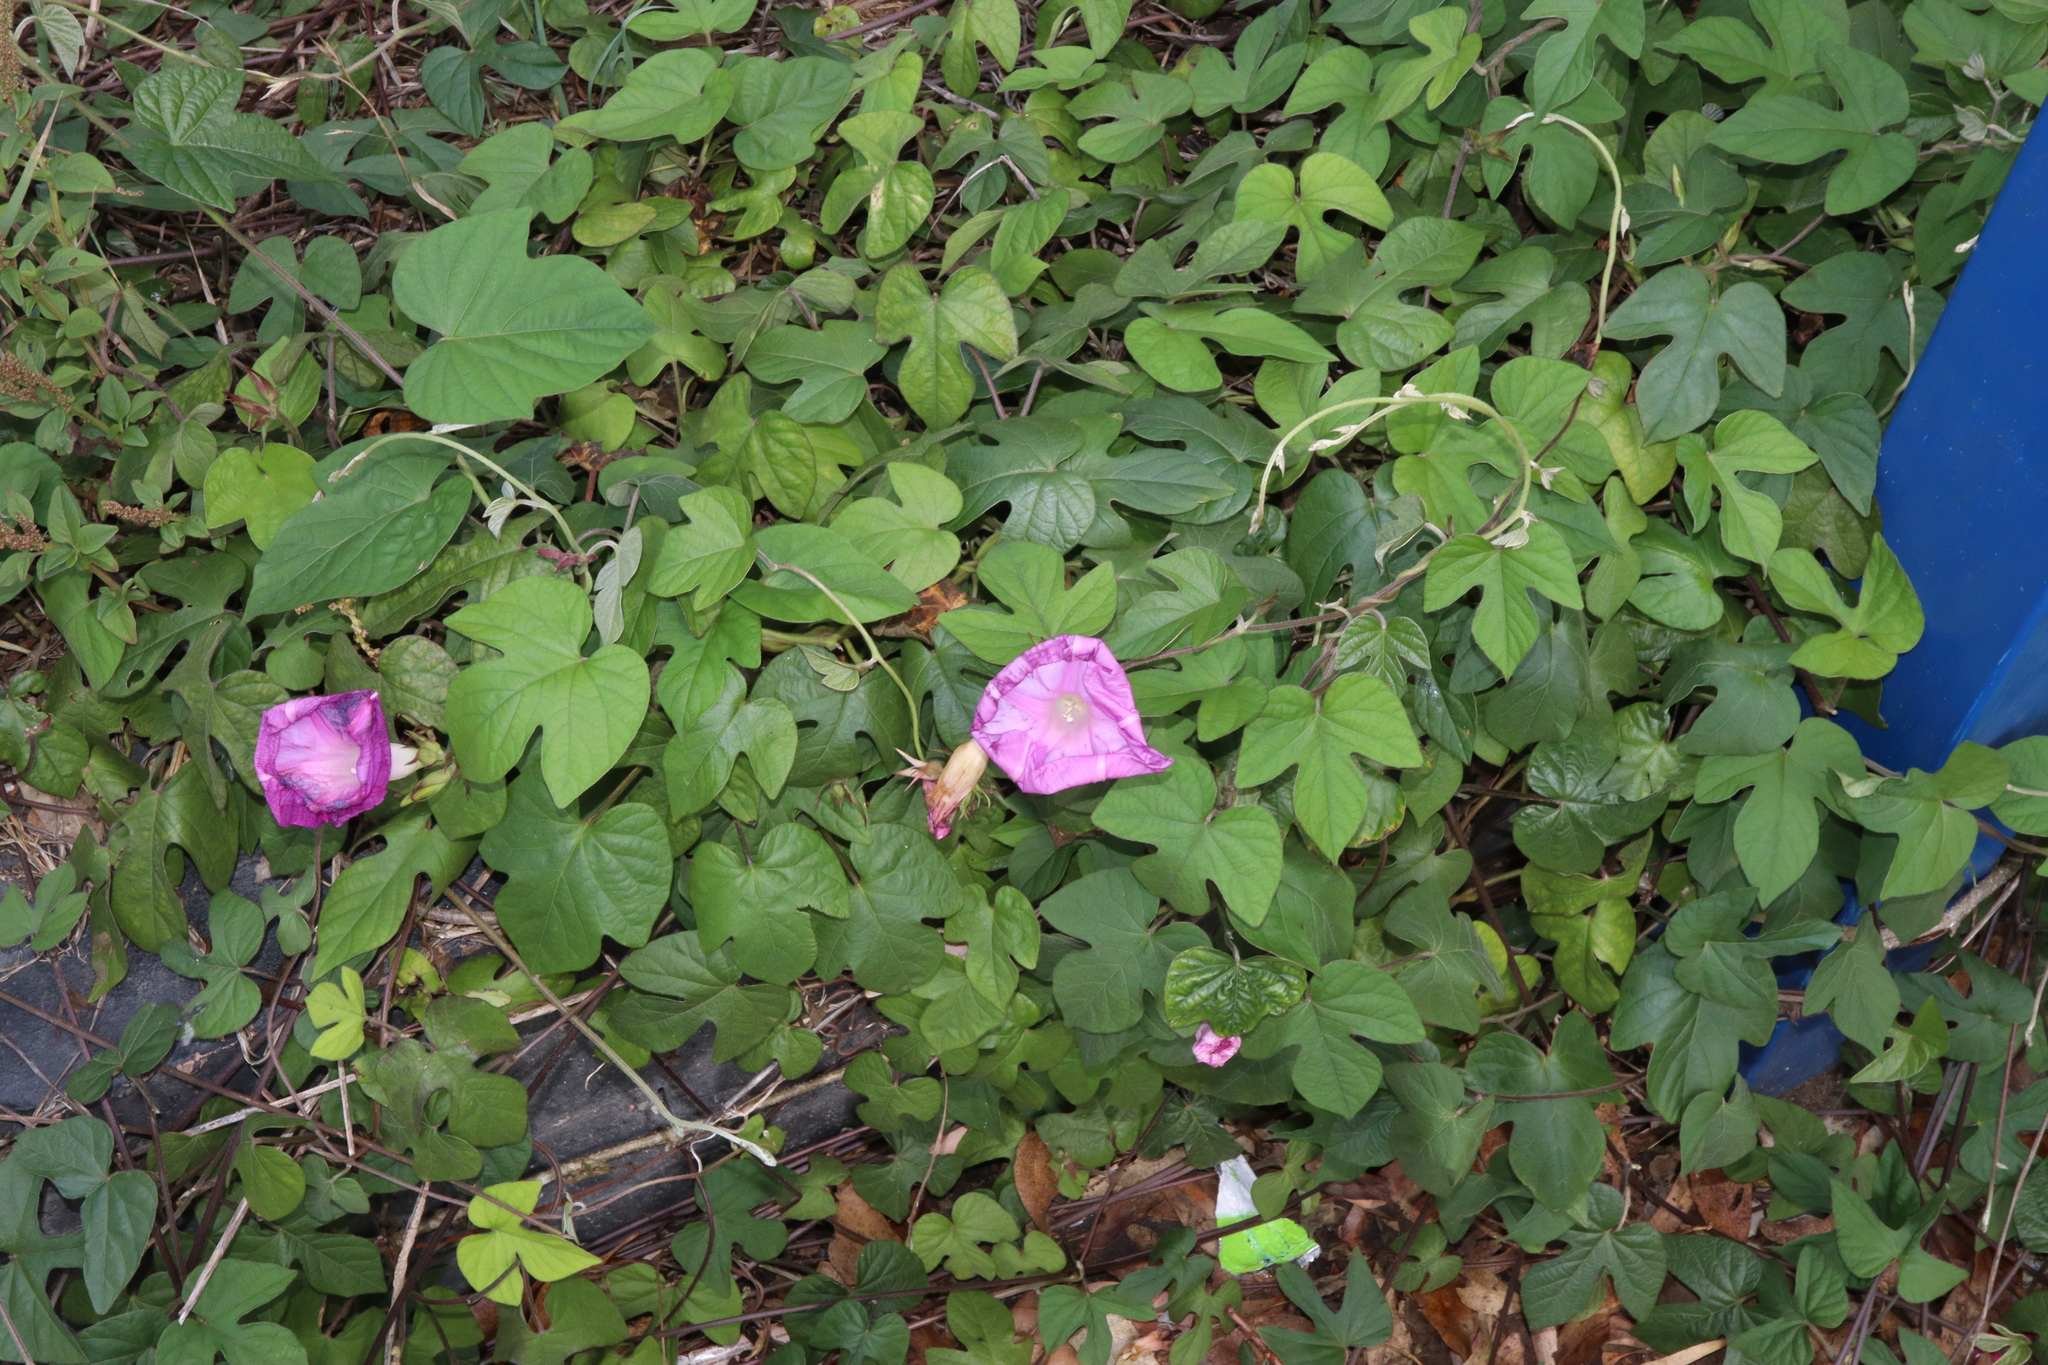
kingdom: Plantae
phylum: Tracheophyta
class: Magnoliopsida
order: Solanales
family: Convolvulaceae
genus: Ipomoea
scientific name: Ipomoea indica
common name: Blue dawnflower
